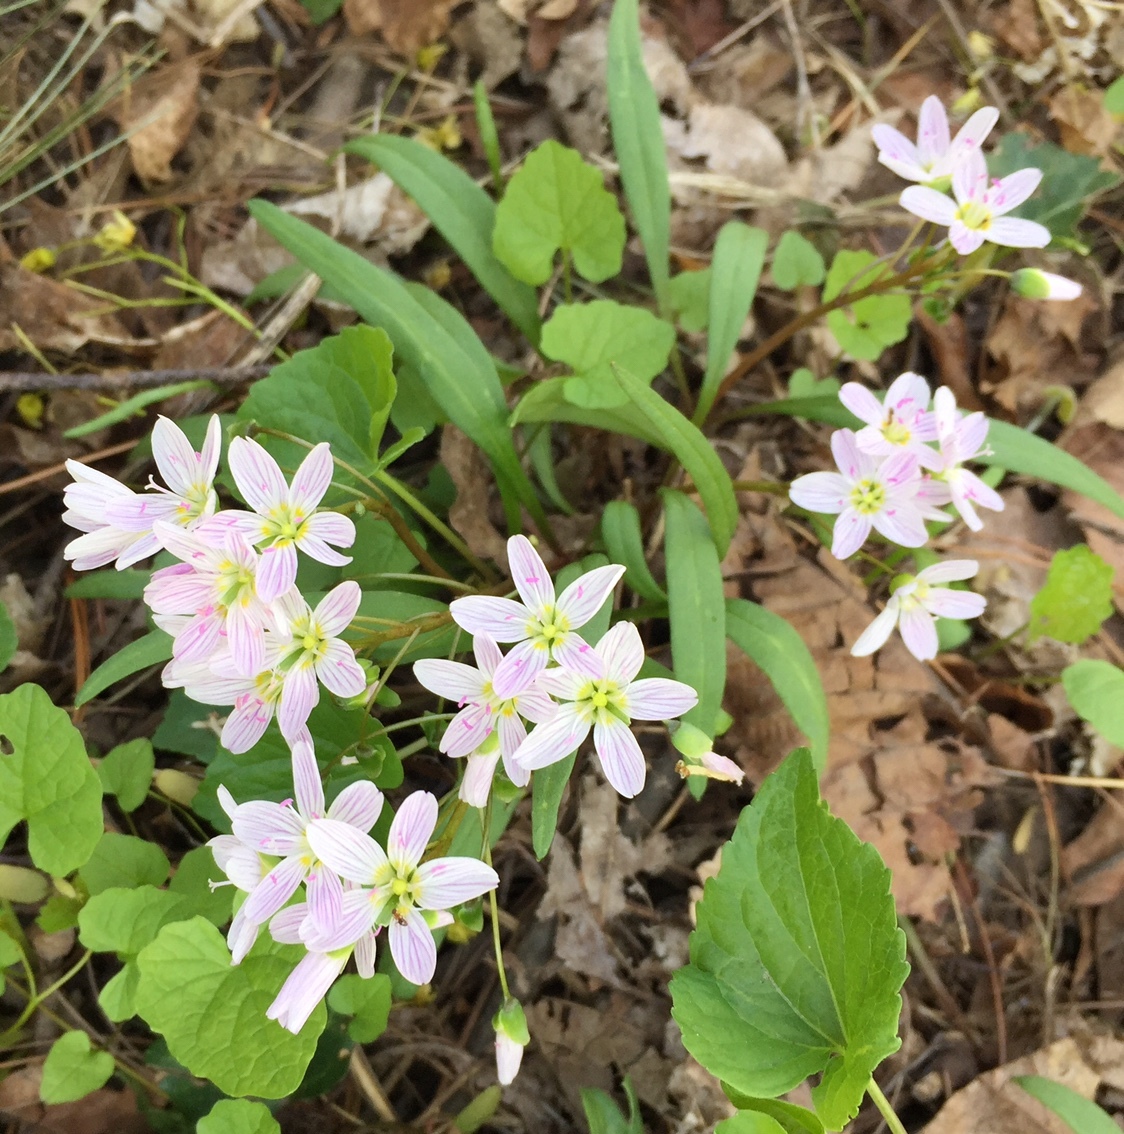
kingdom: Plantae
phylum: Tracheophyta
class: Magnoliopsida
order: Caryophyllales
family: Montiaceae
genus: Claytonia
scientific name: Claytonia virginica
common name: Virginia springbeauty
